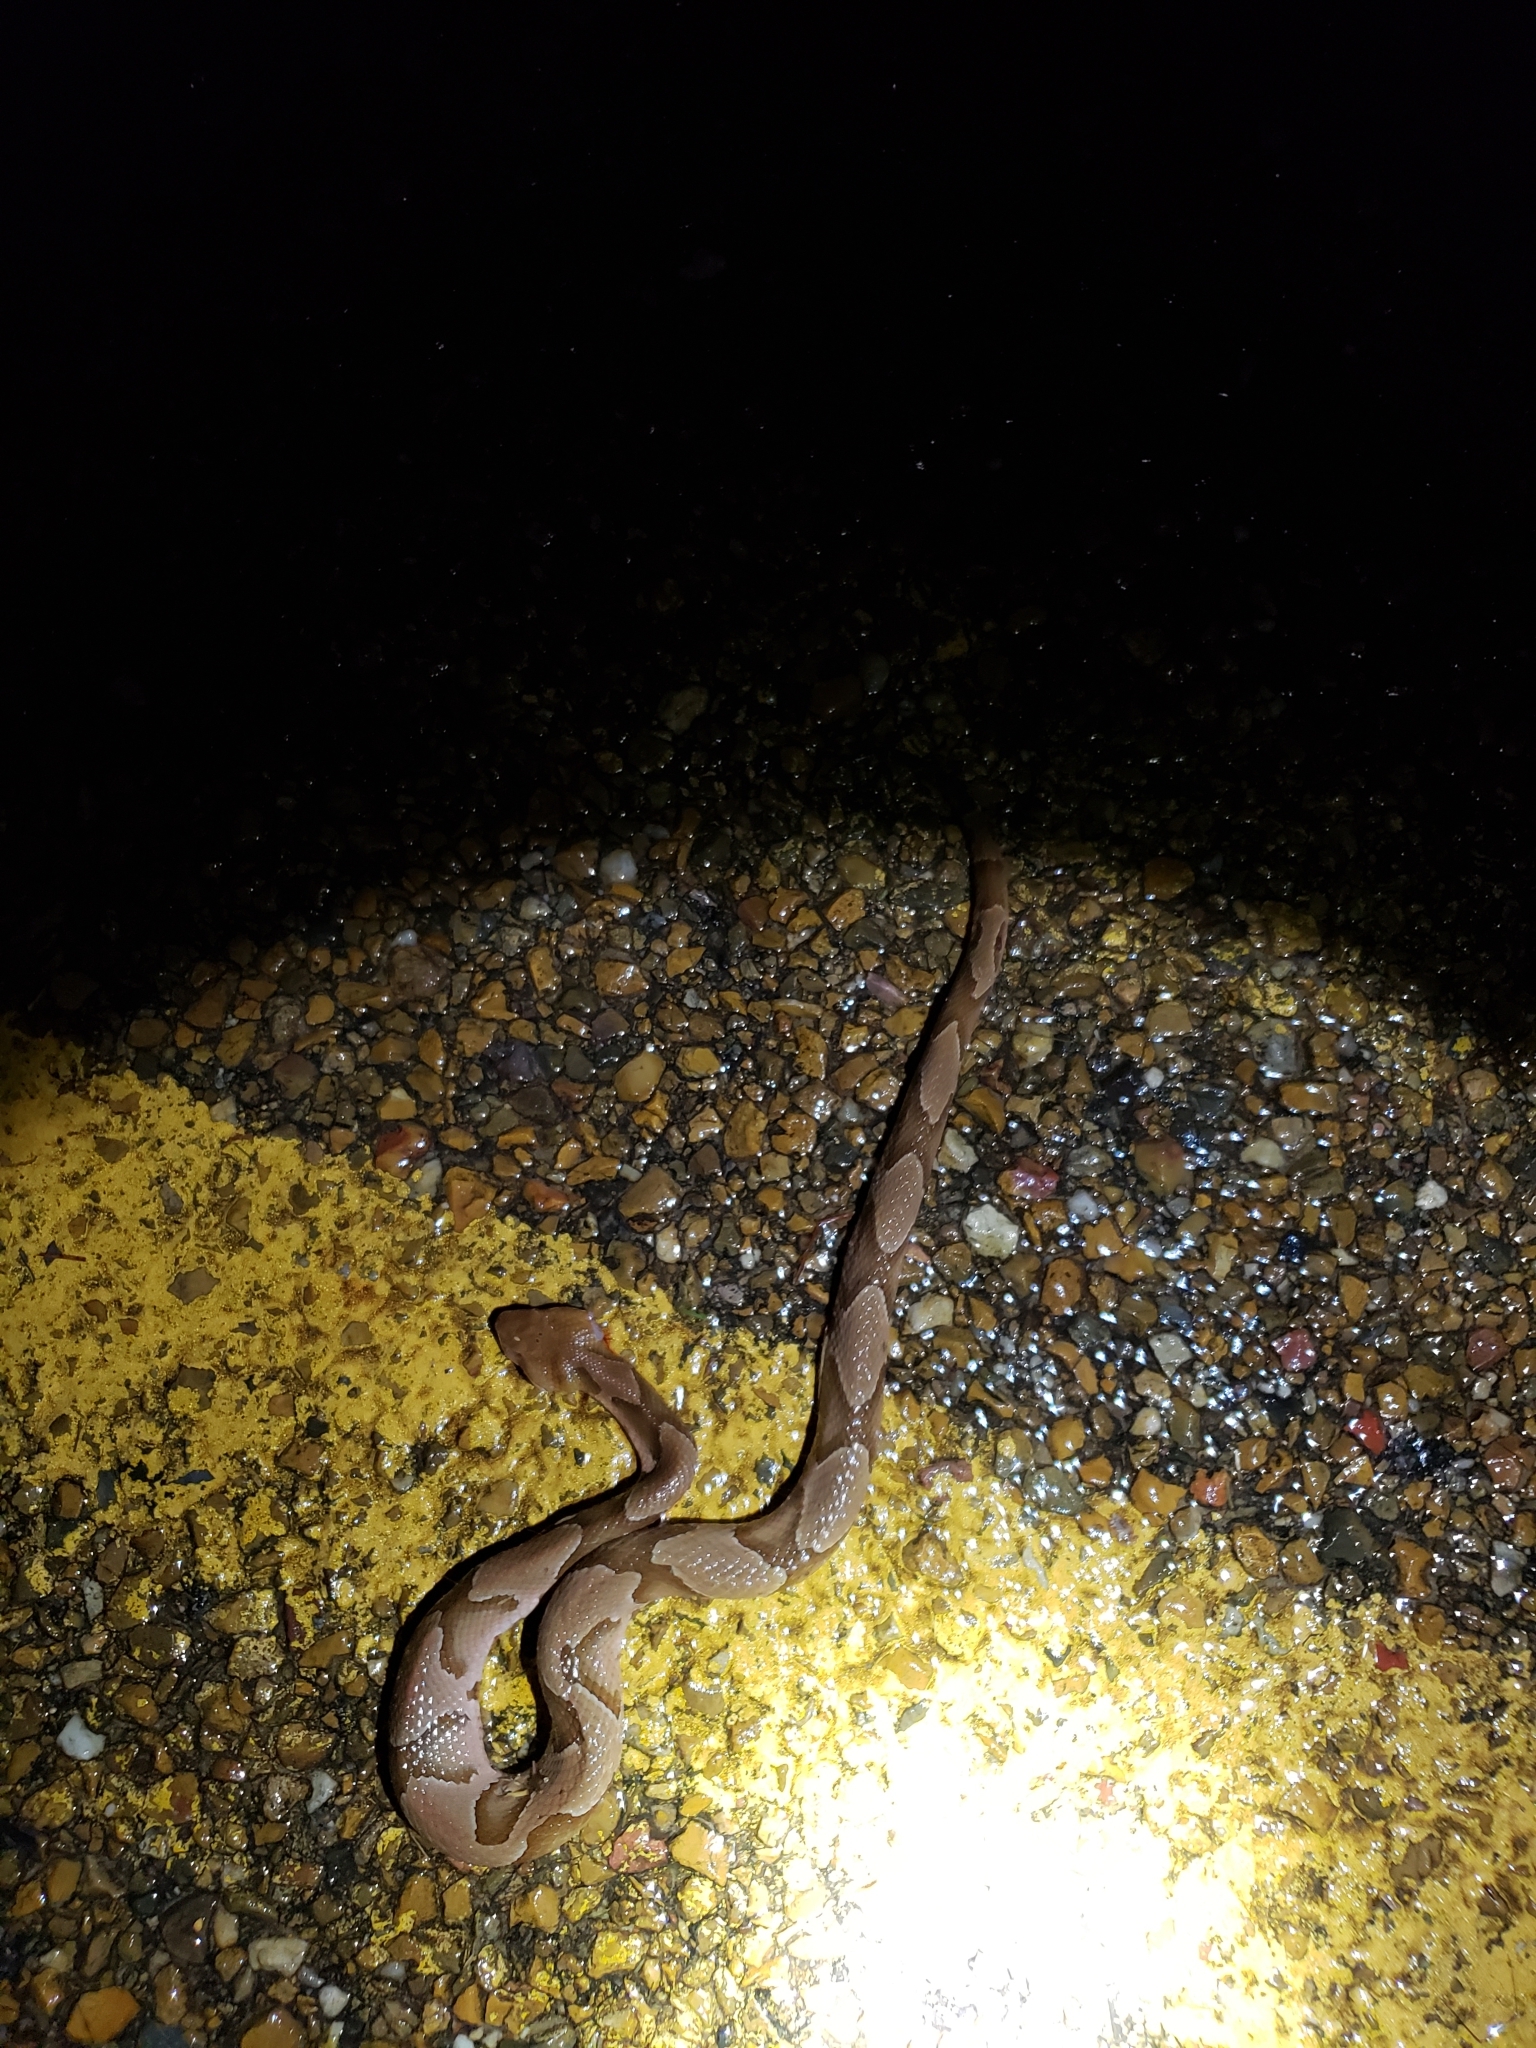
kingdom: Animalia
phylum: Chordata
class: Squamata
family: Viperidae
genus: Agkistrodon
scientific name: Agkistrodon contortrix
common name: Northern copperhead
